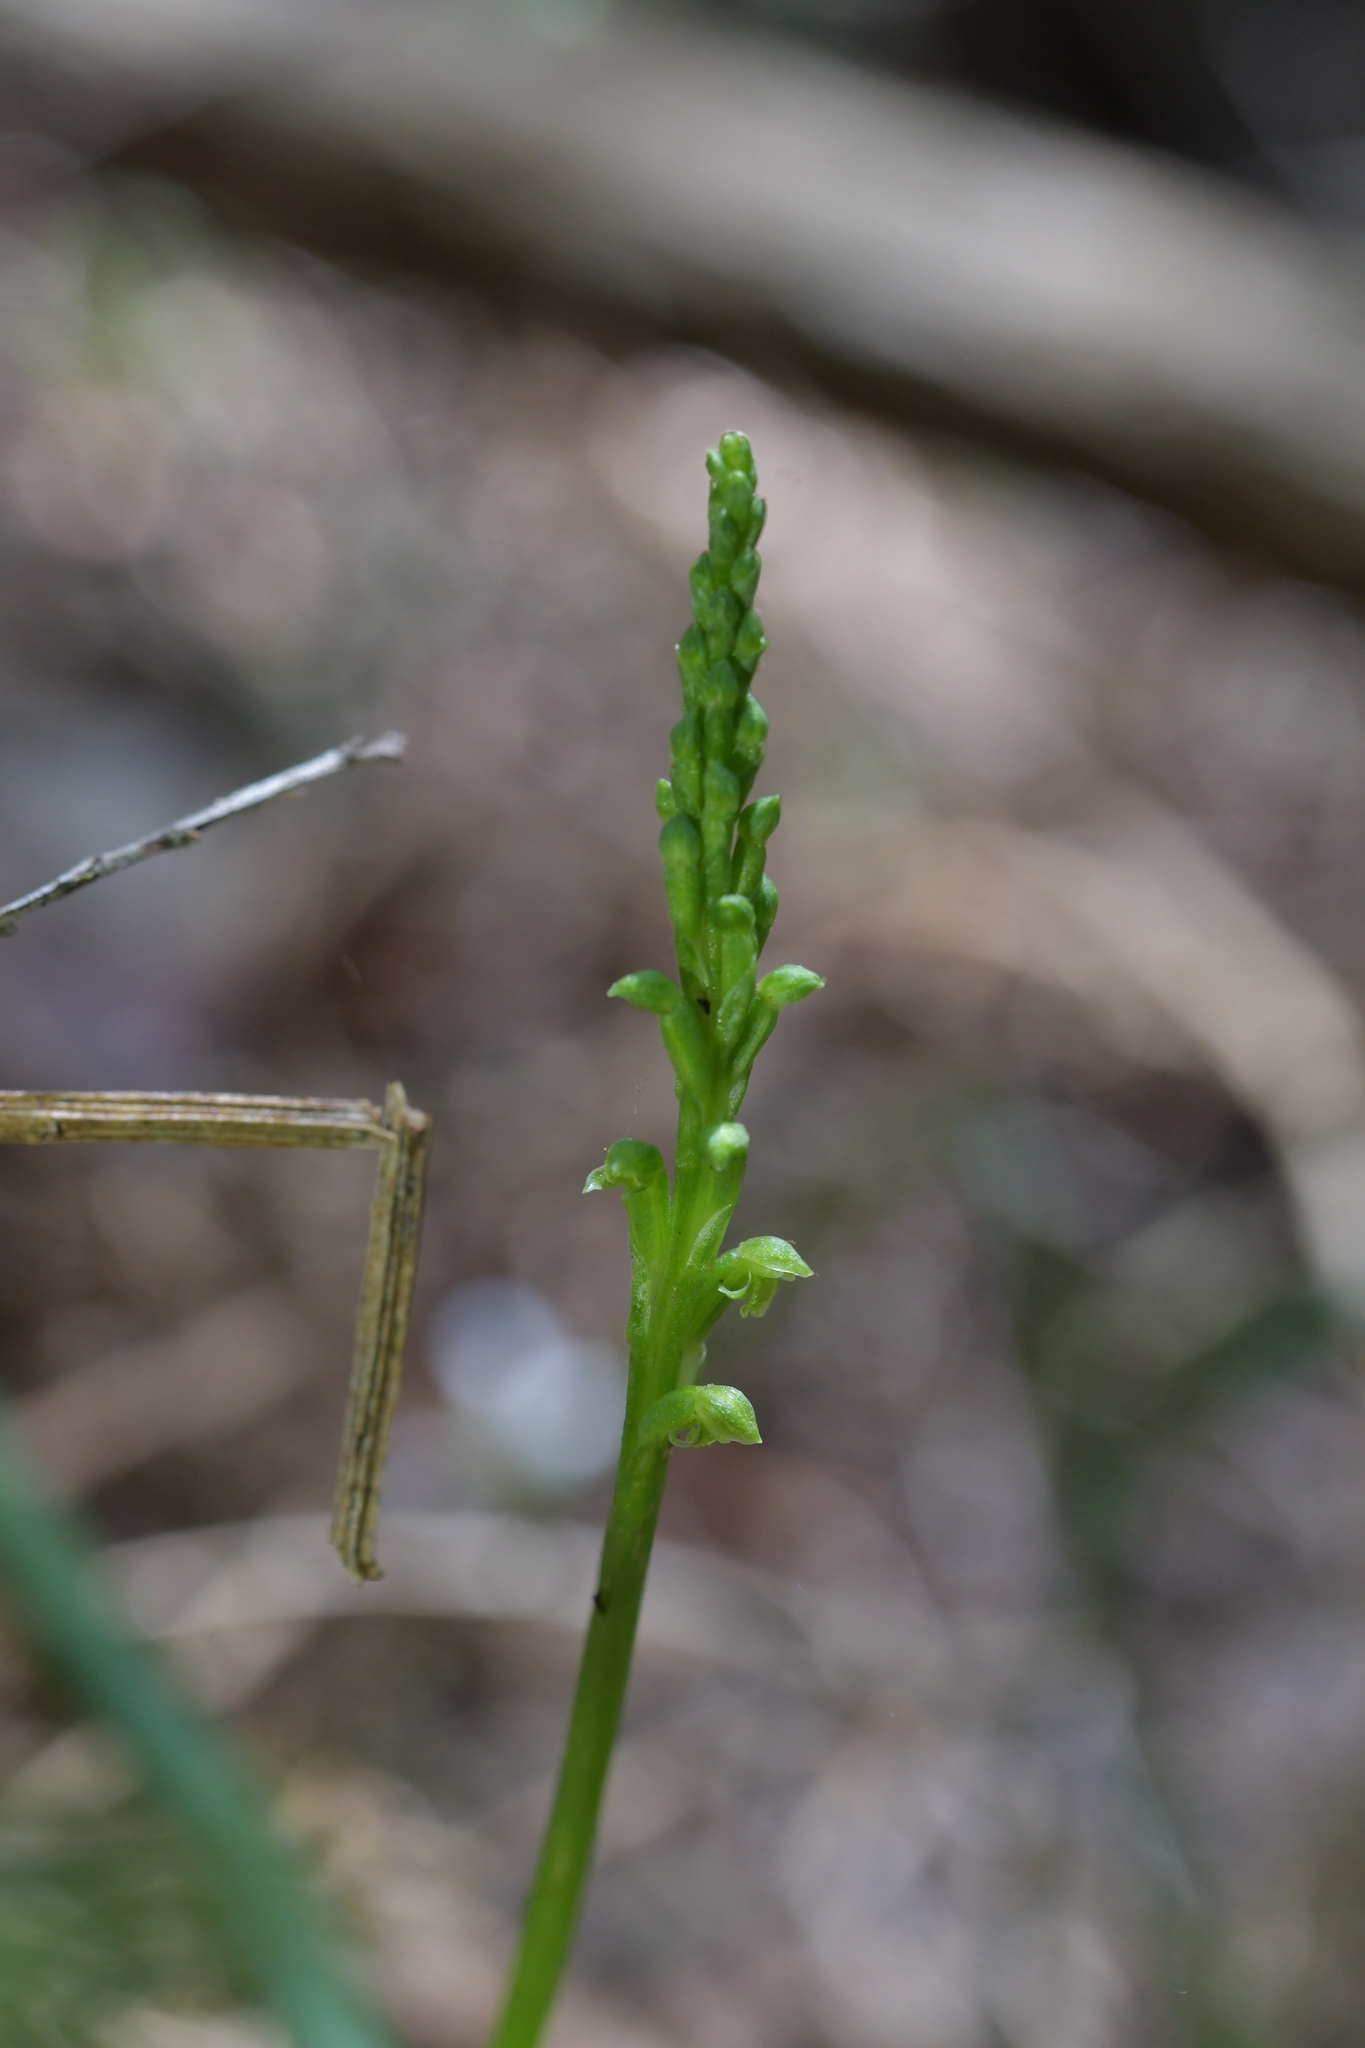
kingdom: Plantae
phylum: Tracheophyta
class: Liliopsida
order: Asparagales
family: Orchidaceae
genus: Microtis
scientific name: Microtis unifolia
